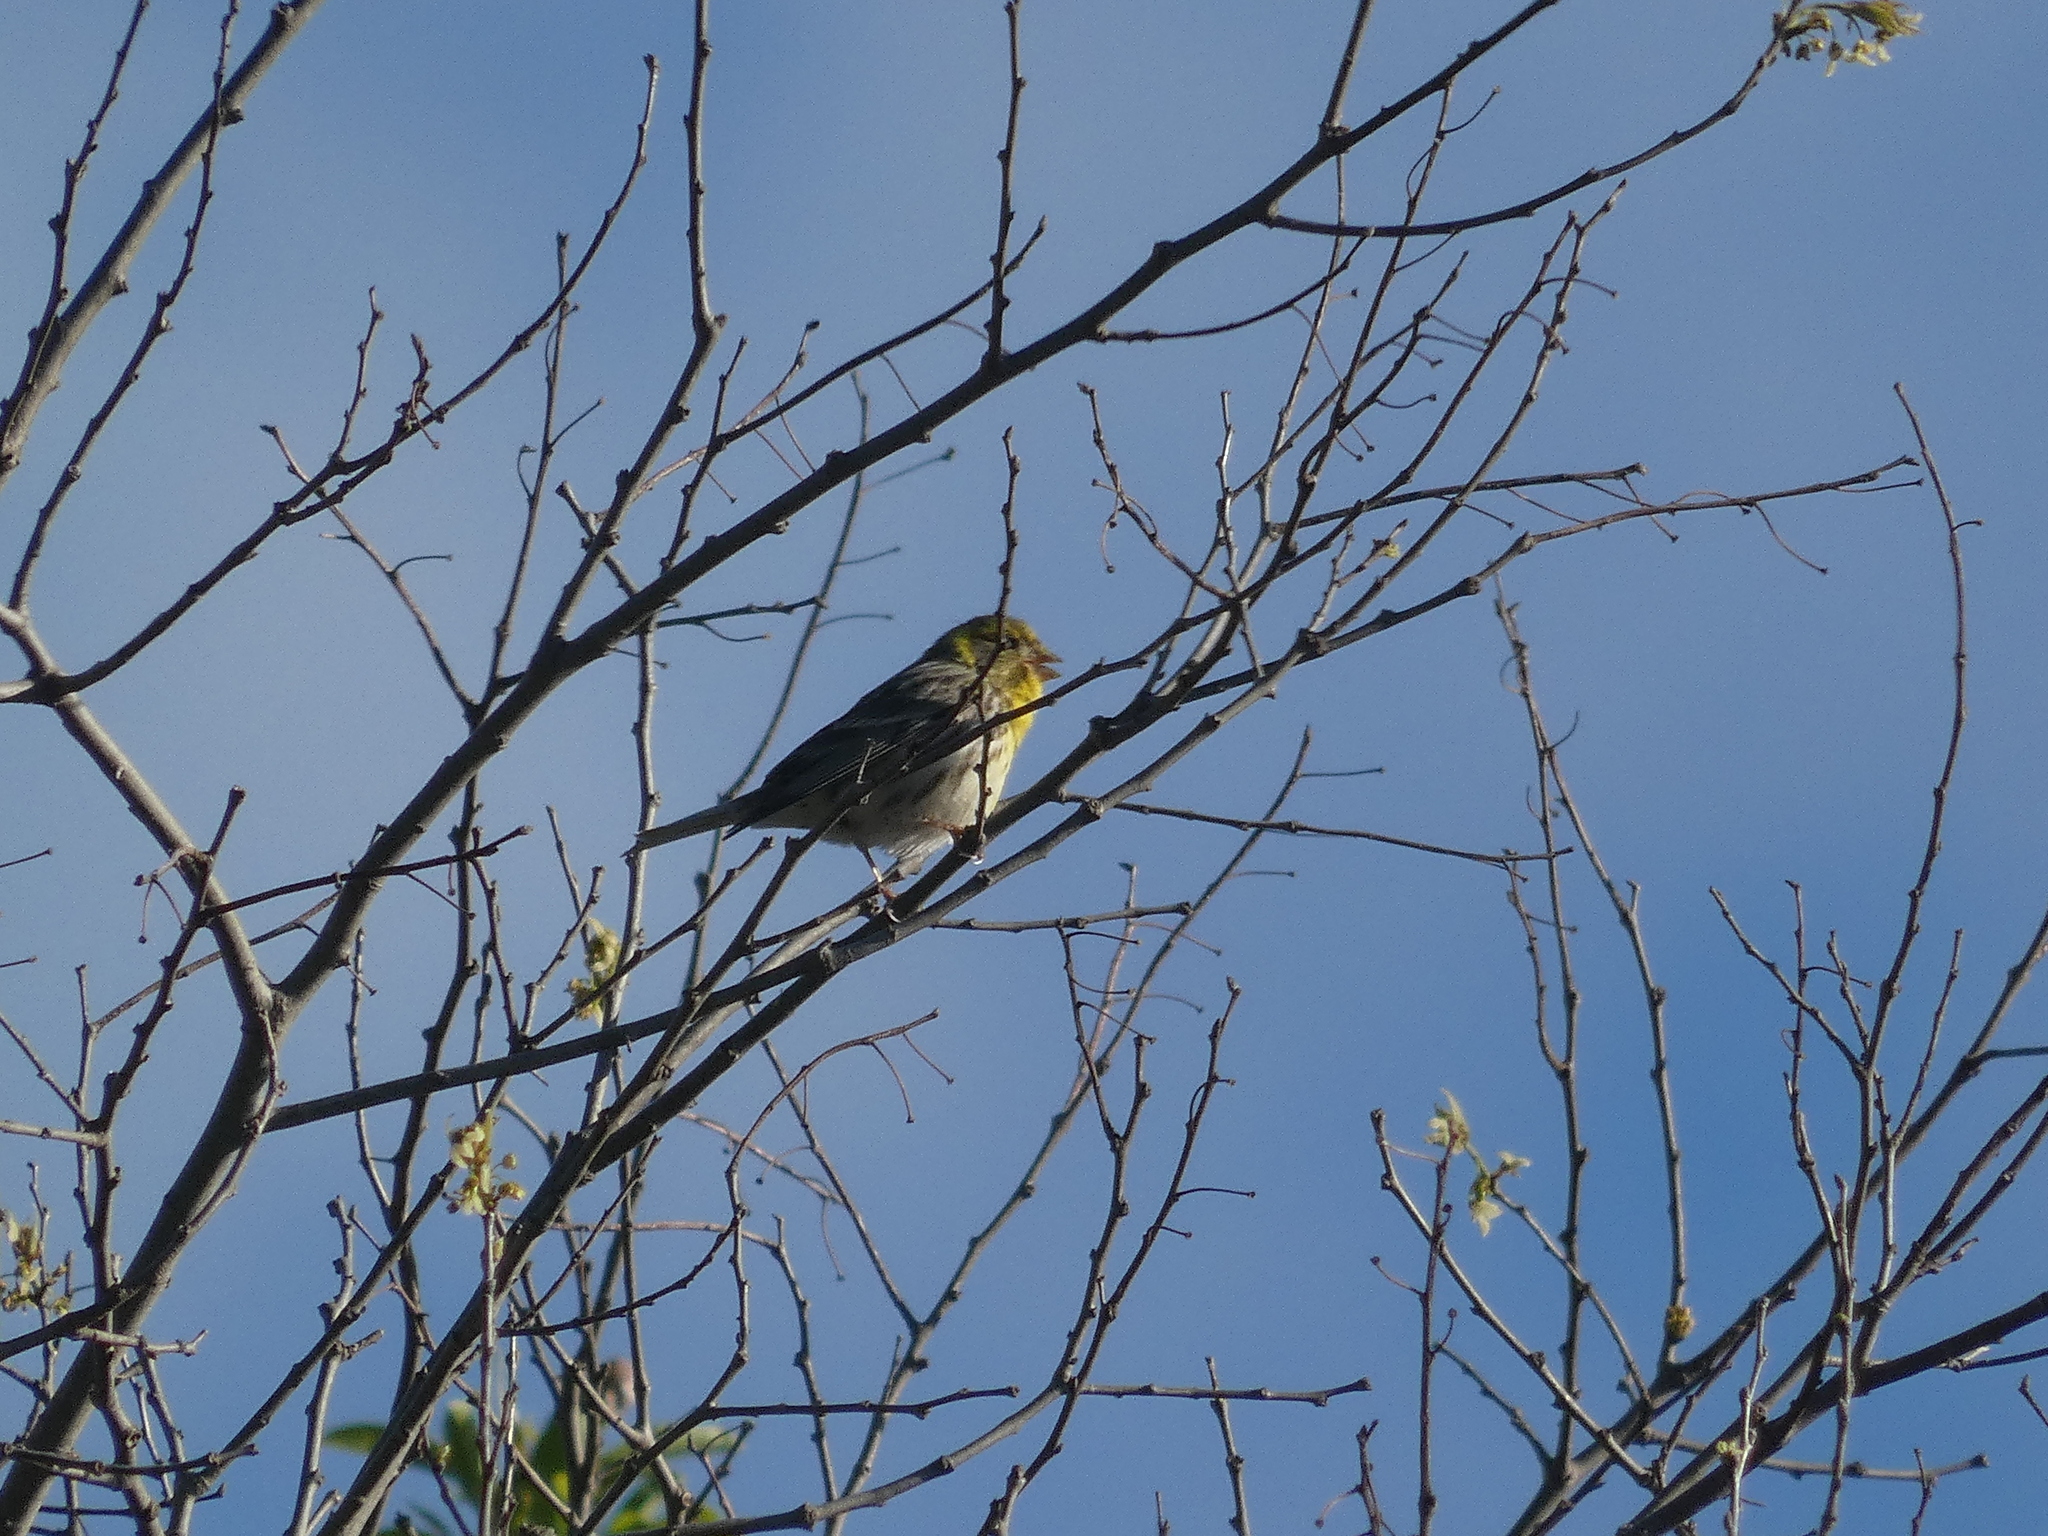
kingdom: Animalia
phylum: Chordata
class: Aves
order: Passeriformes
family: Fringillidae
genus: Serinus
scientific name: Serinus serinus
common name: European serin
